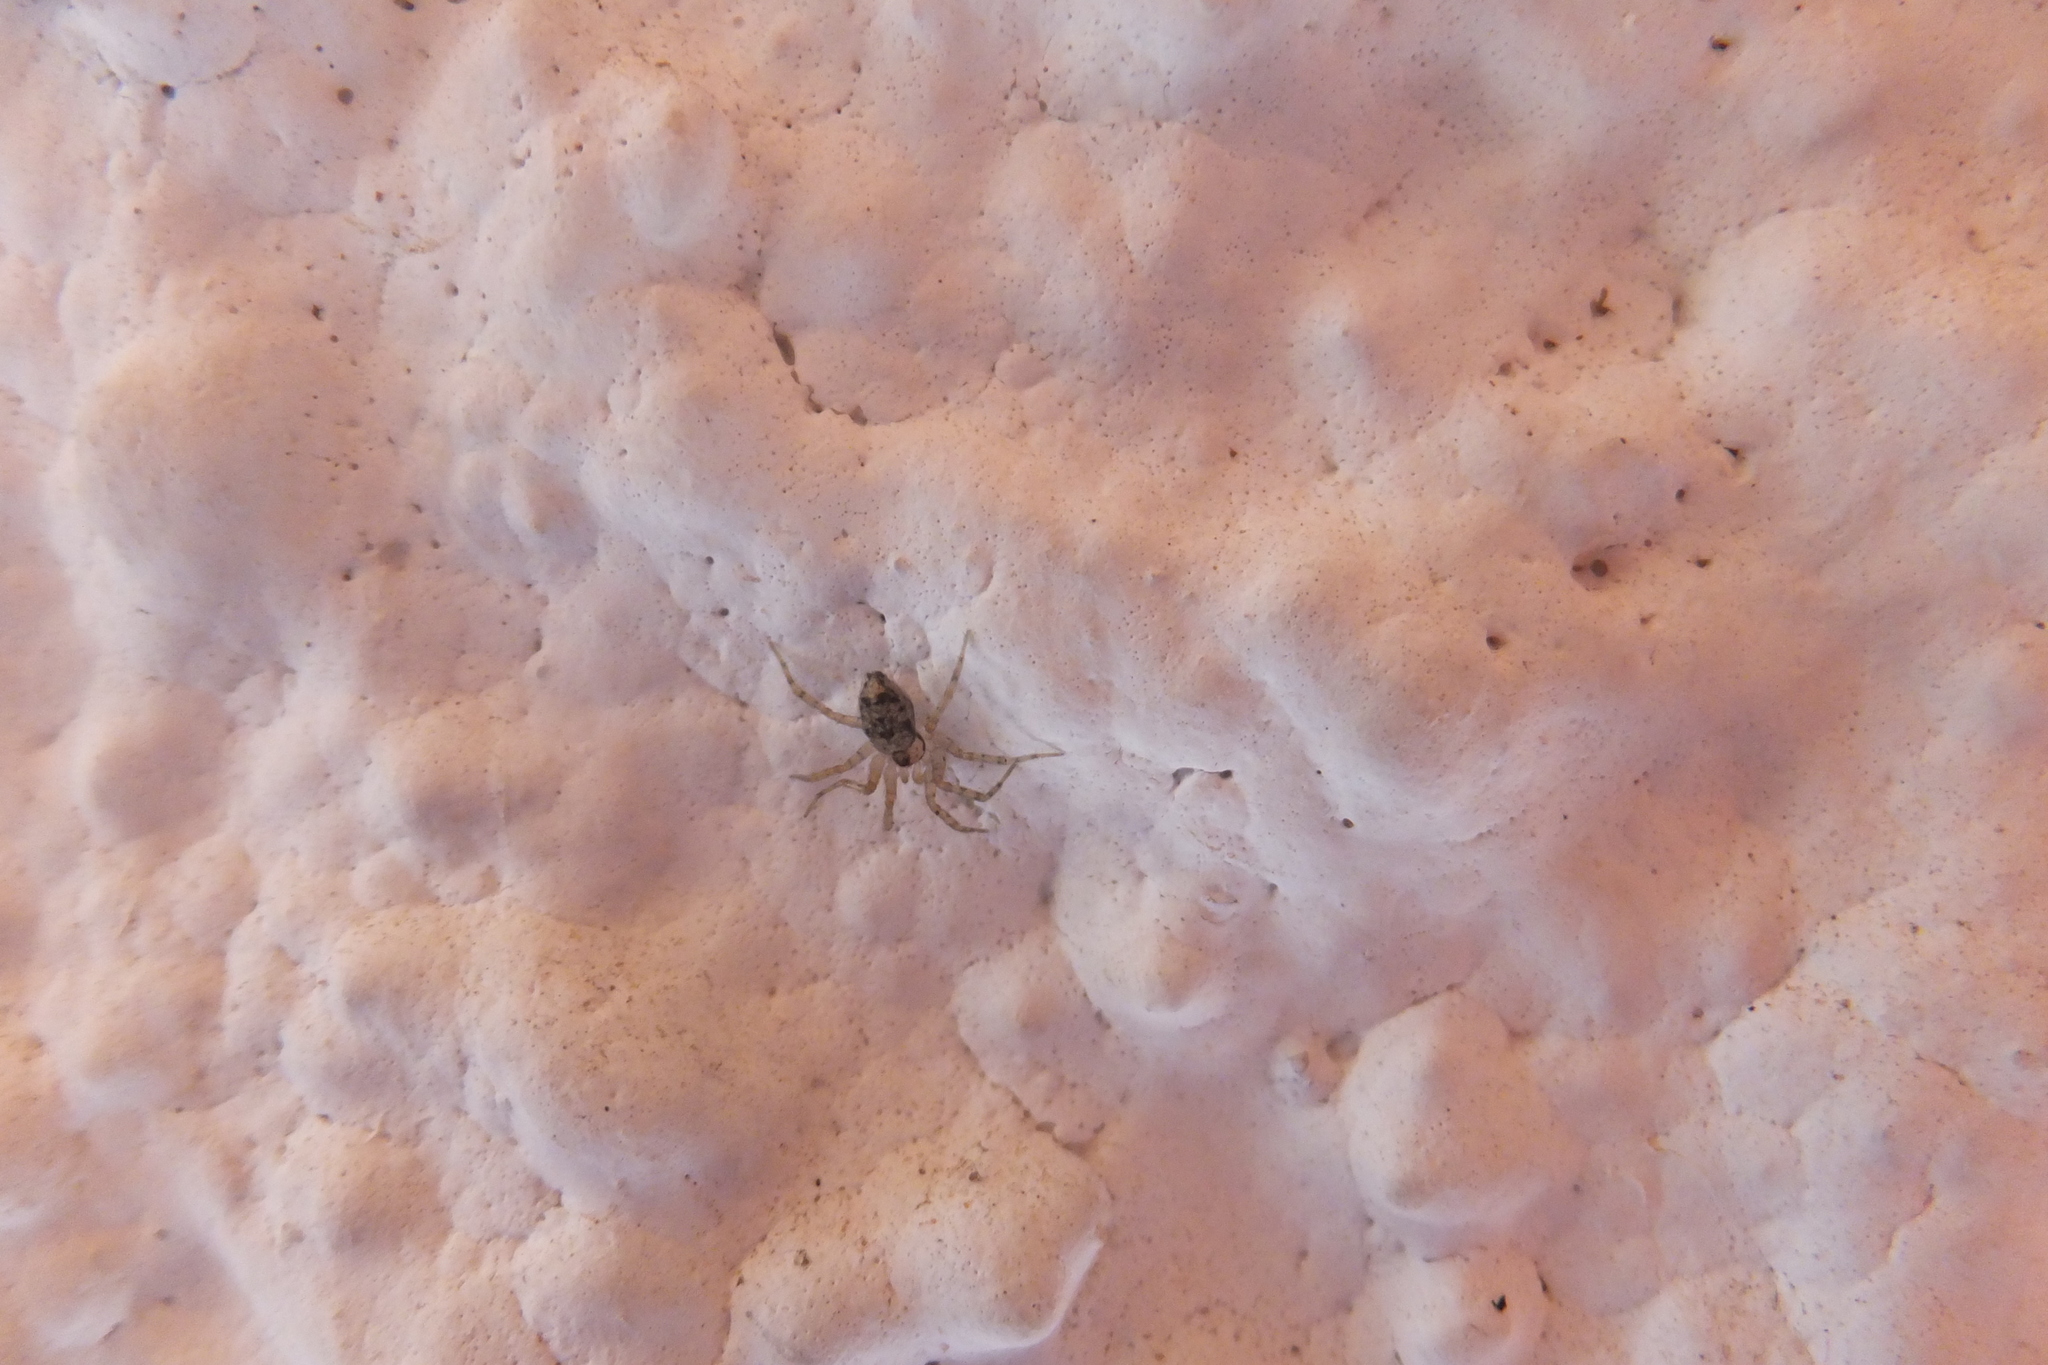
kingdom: Animalia
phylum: Arthropoda
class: Arachnida
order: Araneae
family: Oecobiidae
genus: Oecobius
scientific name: Oecobius navus
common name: Flatmesh weaver
